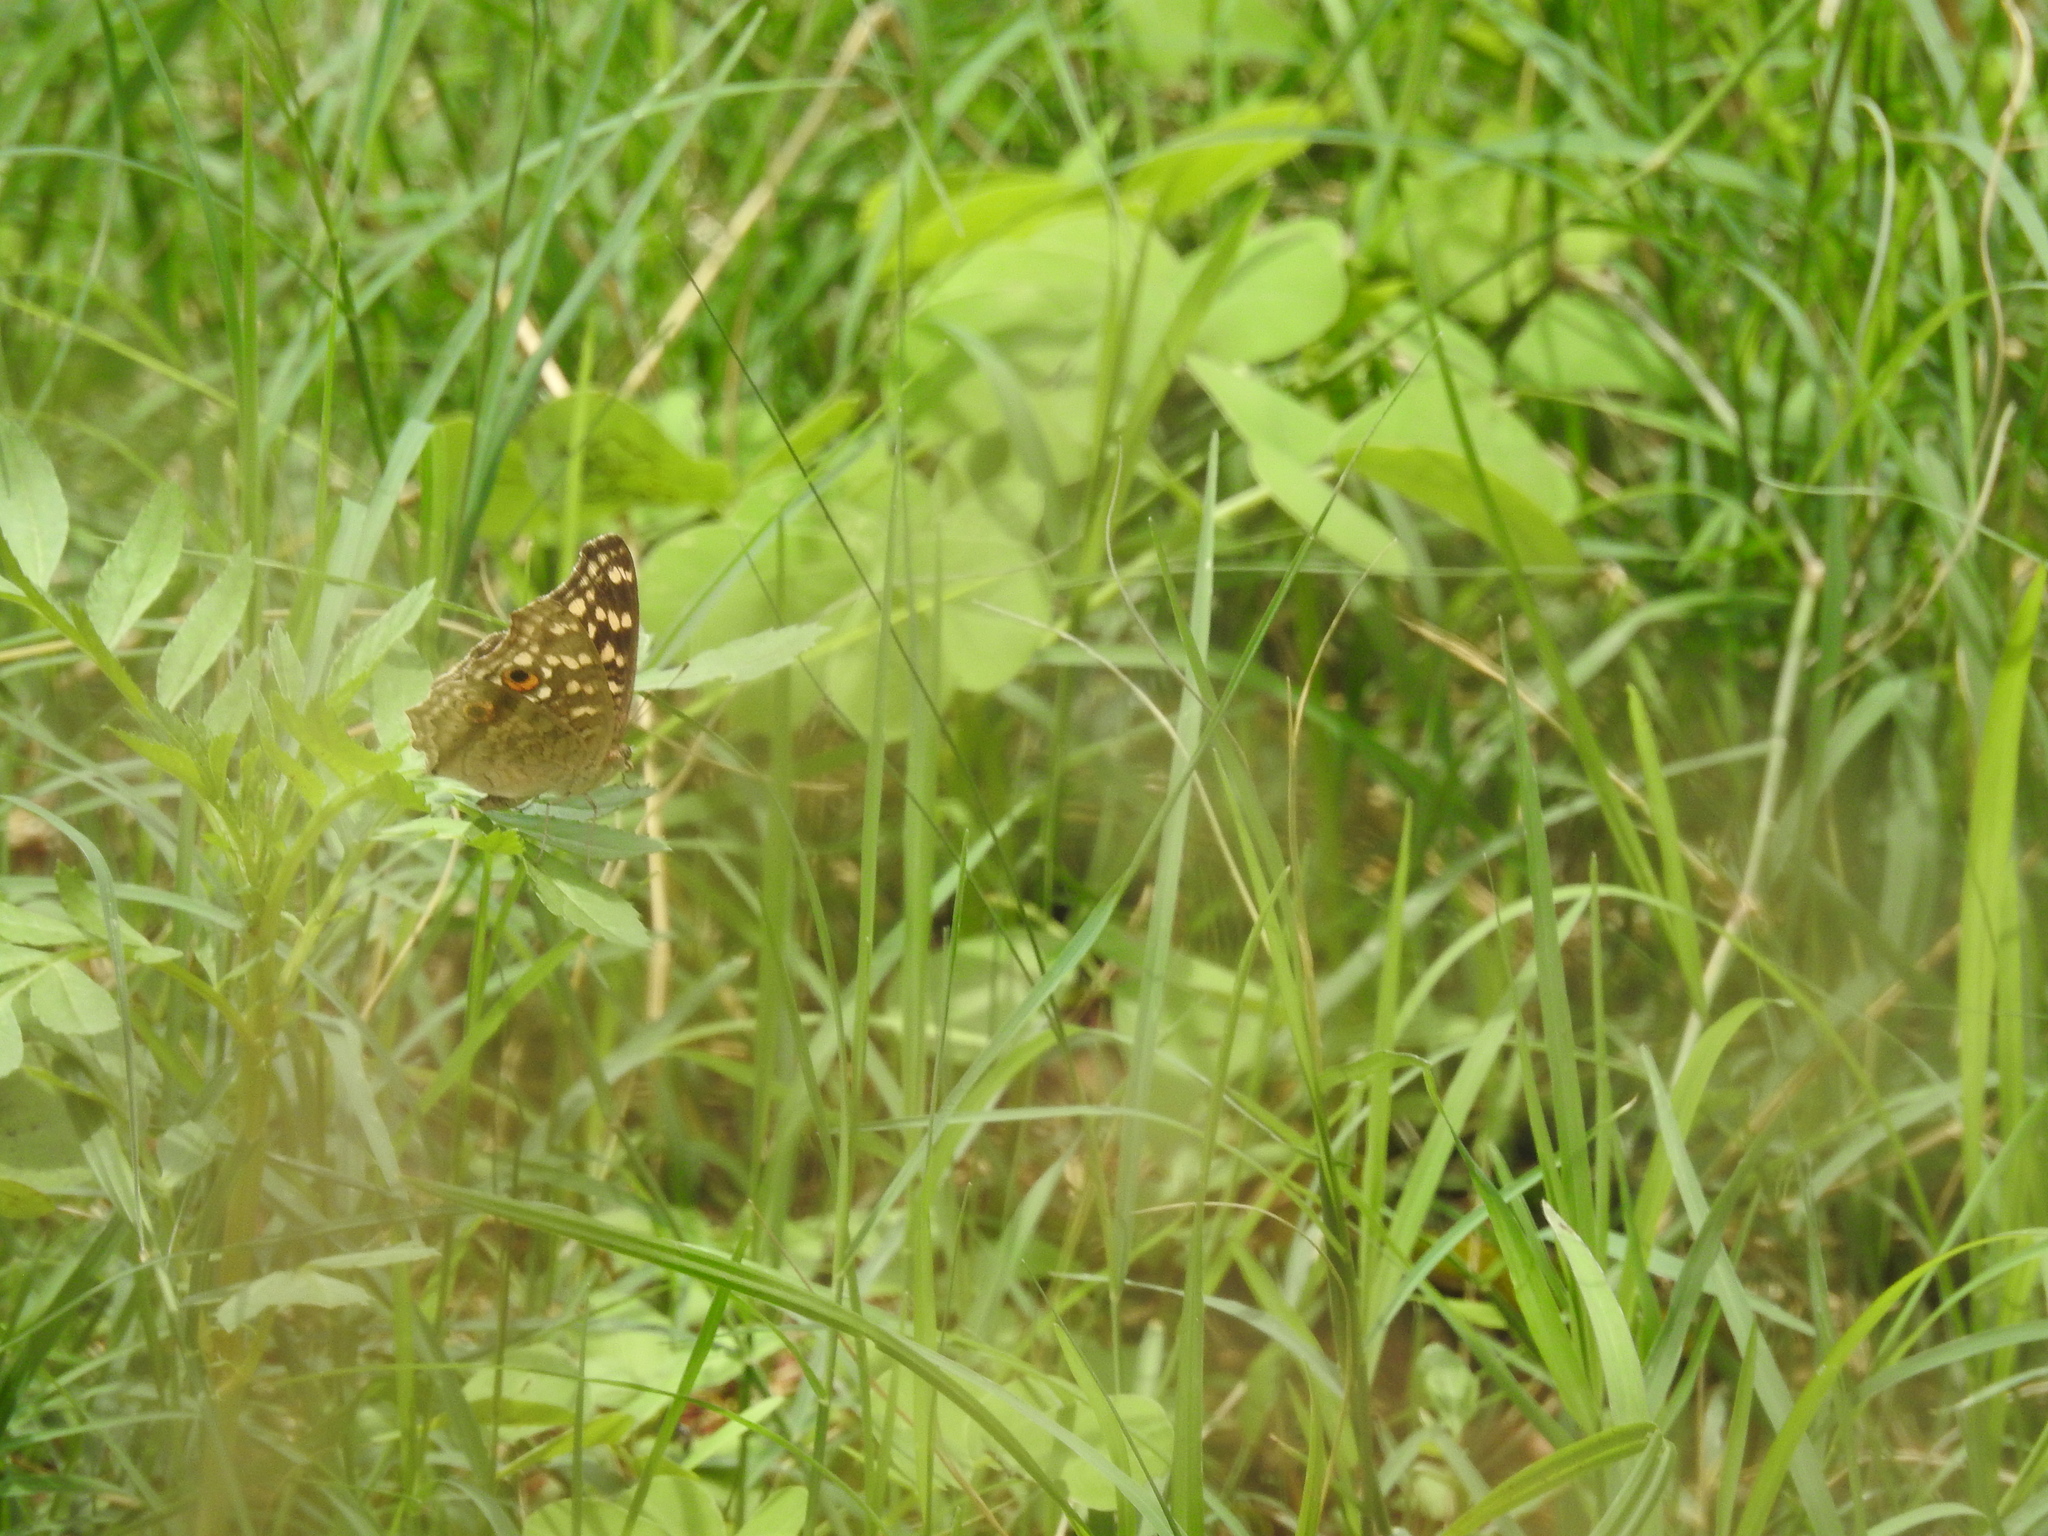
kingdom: Animalia
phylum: Arthropoda
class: Insecta
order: Lepidoptera
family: Nymphalidae
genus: Junonia
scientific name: Junonia lemonias
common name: Lemon pansy
